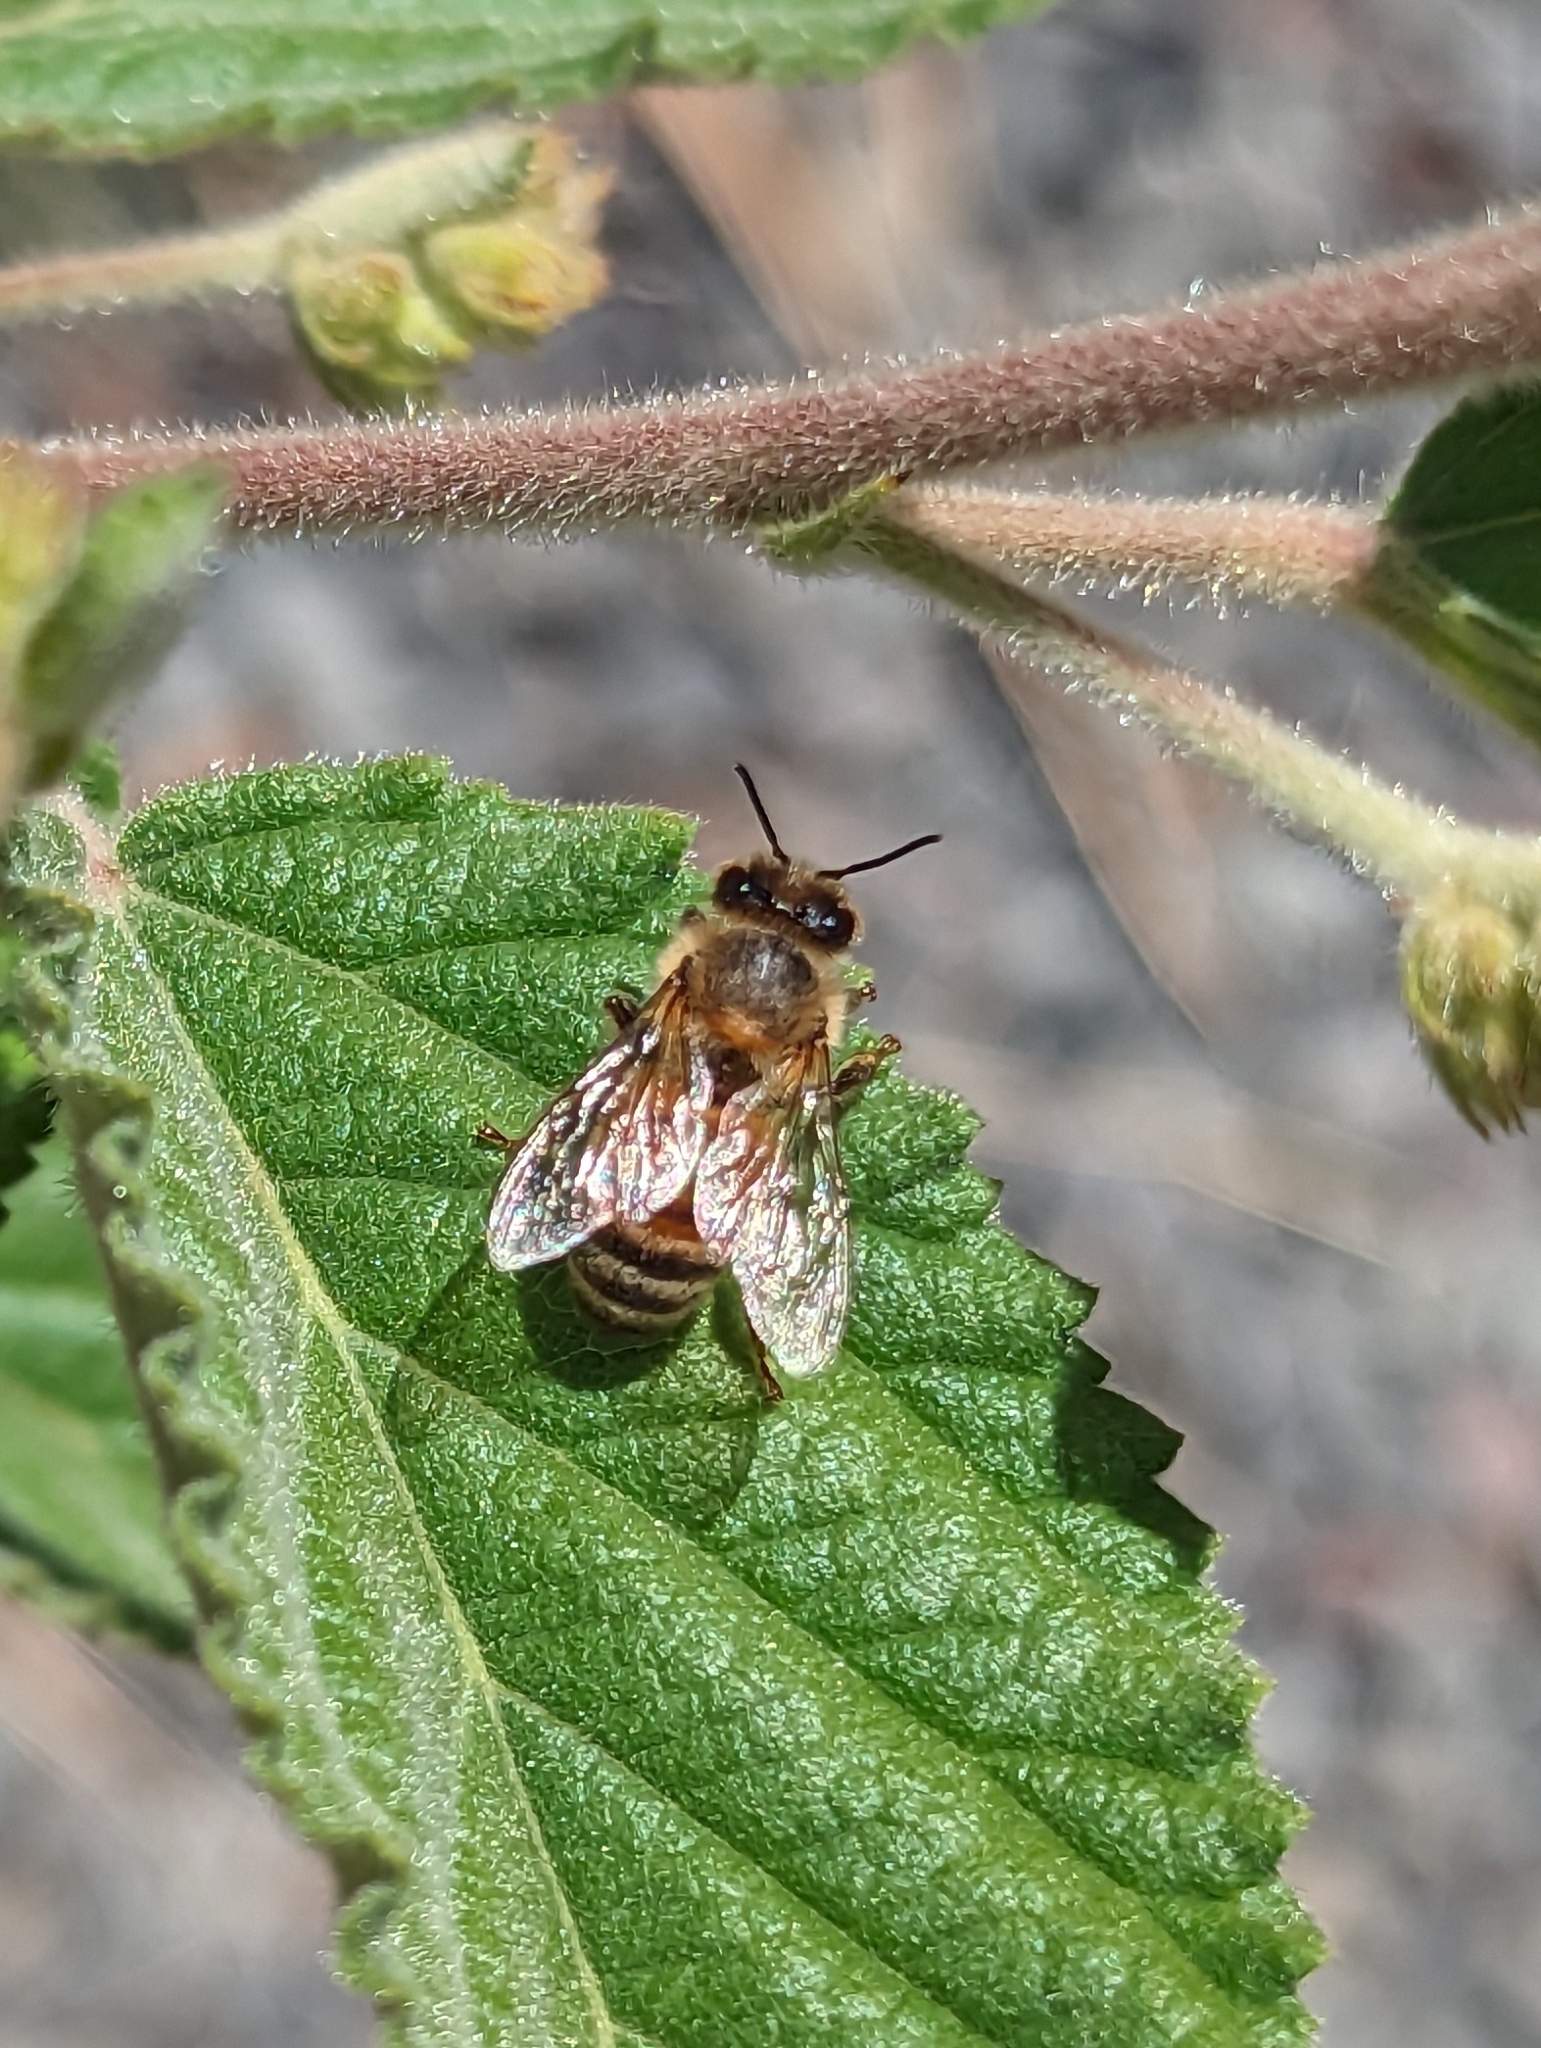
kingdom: Animalia
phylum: Arthropoda
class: Insecta
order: Hymenoptera
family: Apidae
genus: Apis
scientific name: Apis mellifera
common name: Honey bee
